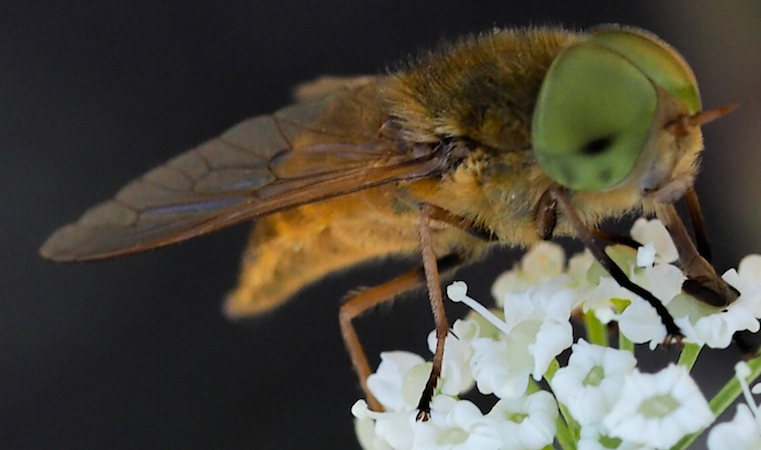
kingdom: Animalia
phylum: Arthropoda
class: Insecta
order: Diptera
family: Tabanidae
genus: Atylotus
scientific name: Atylotus loewianus
